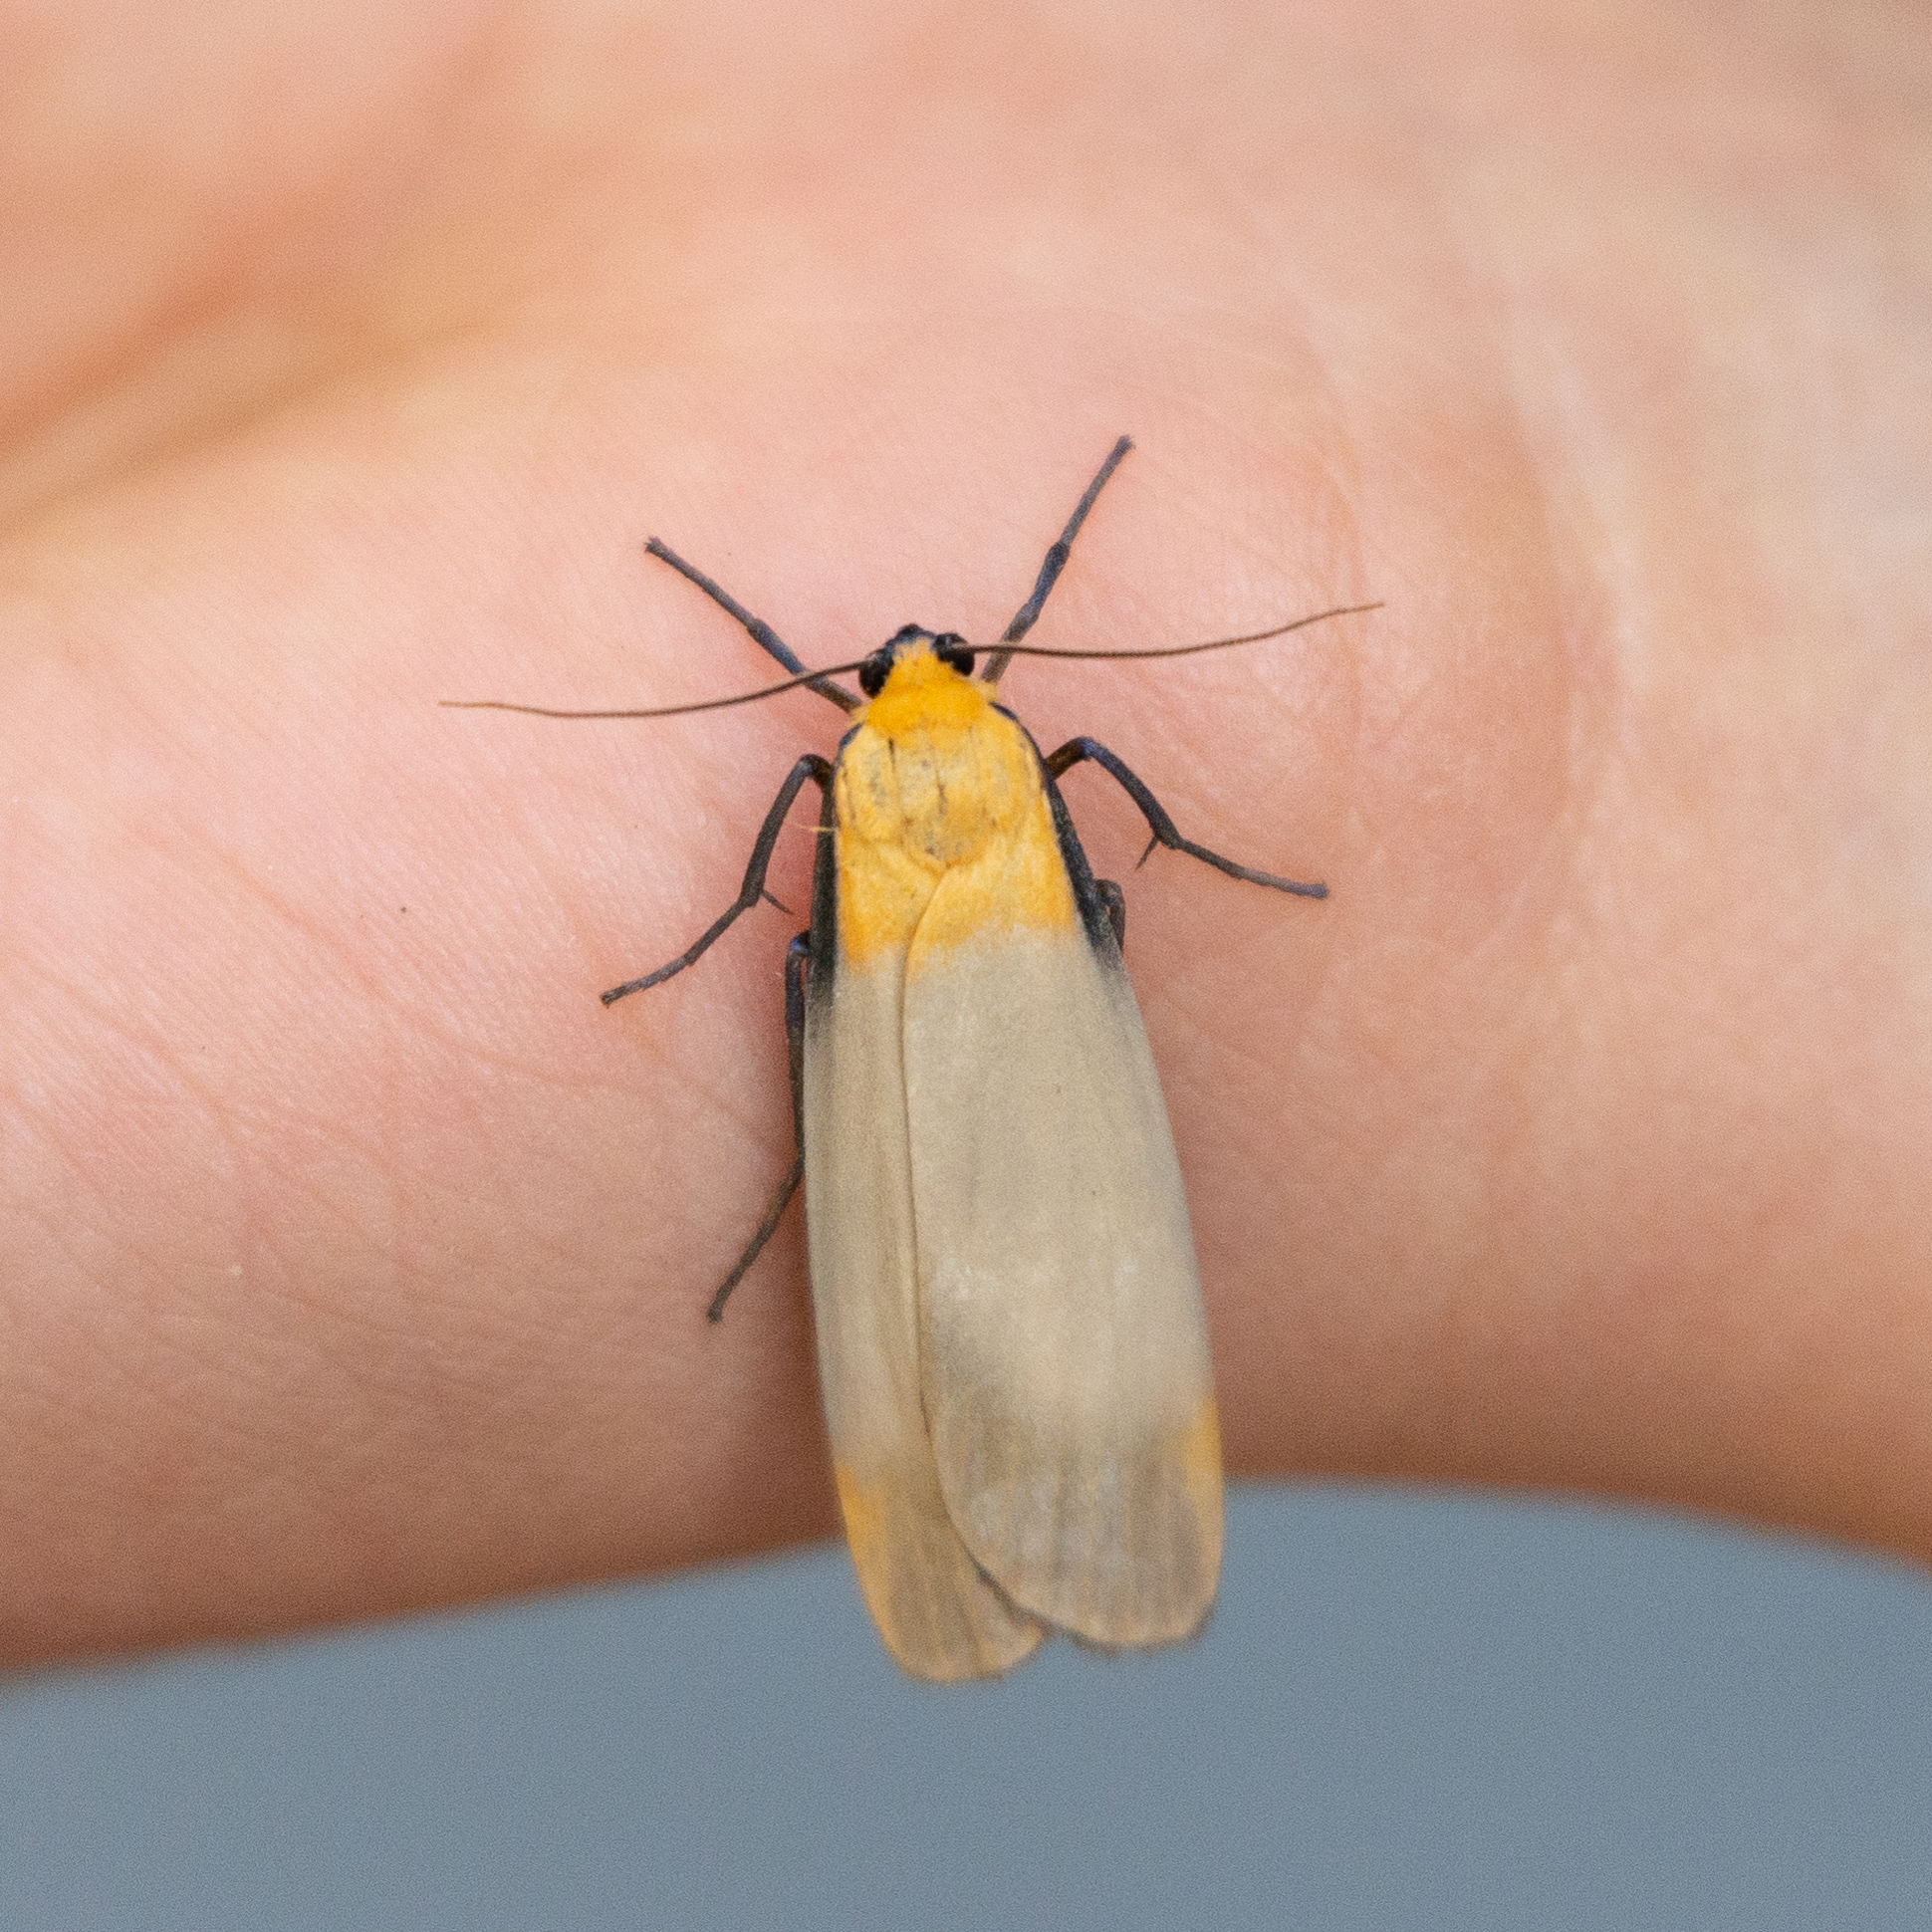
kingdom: Animalia
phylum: Arthropoda
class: Insecta
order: Lepidoptera
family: Erebidae
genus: Lithosia
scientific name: Lithosia quadra
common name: Four-spotted footman
